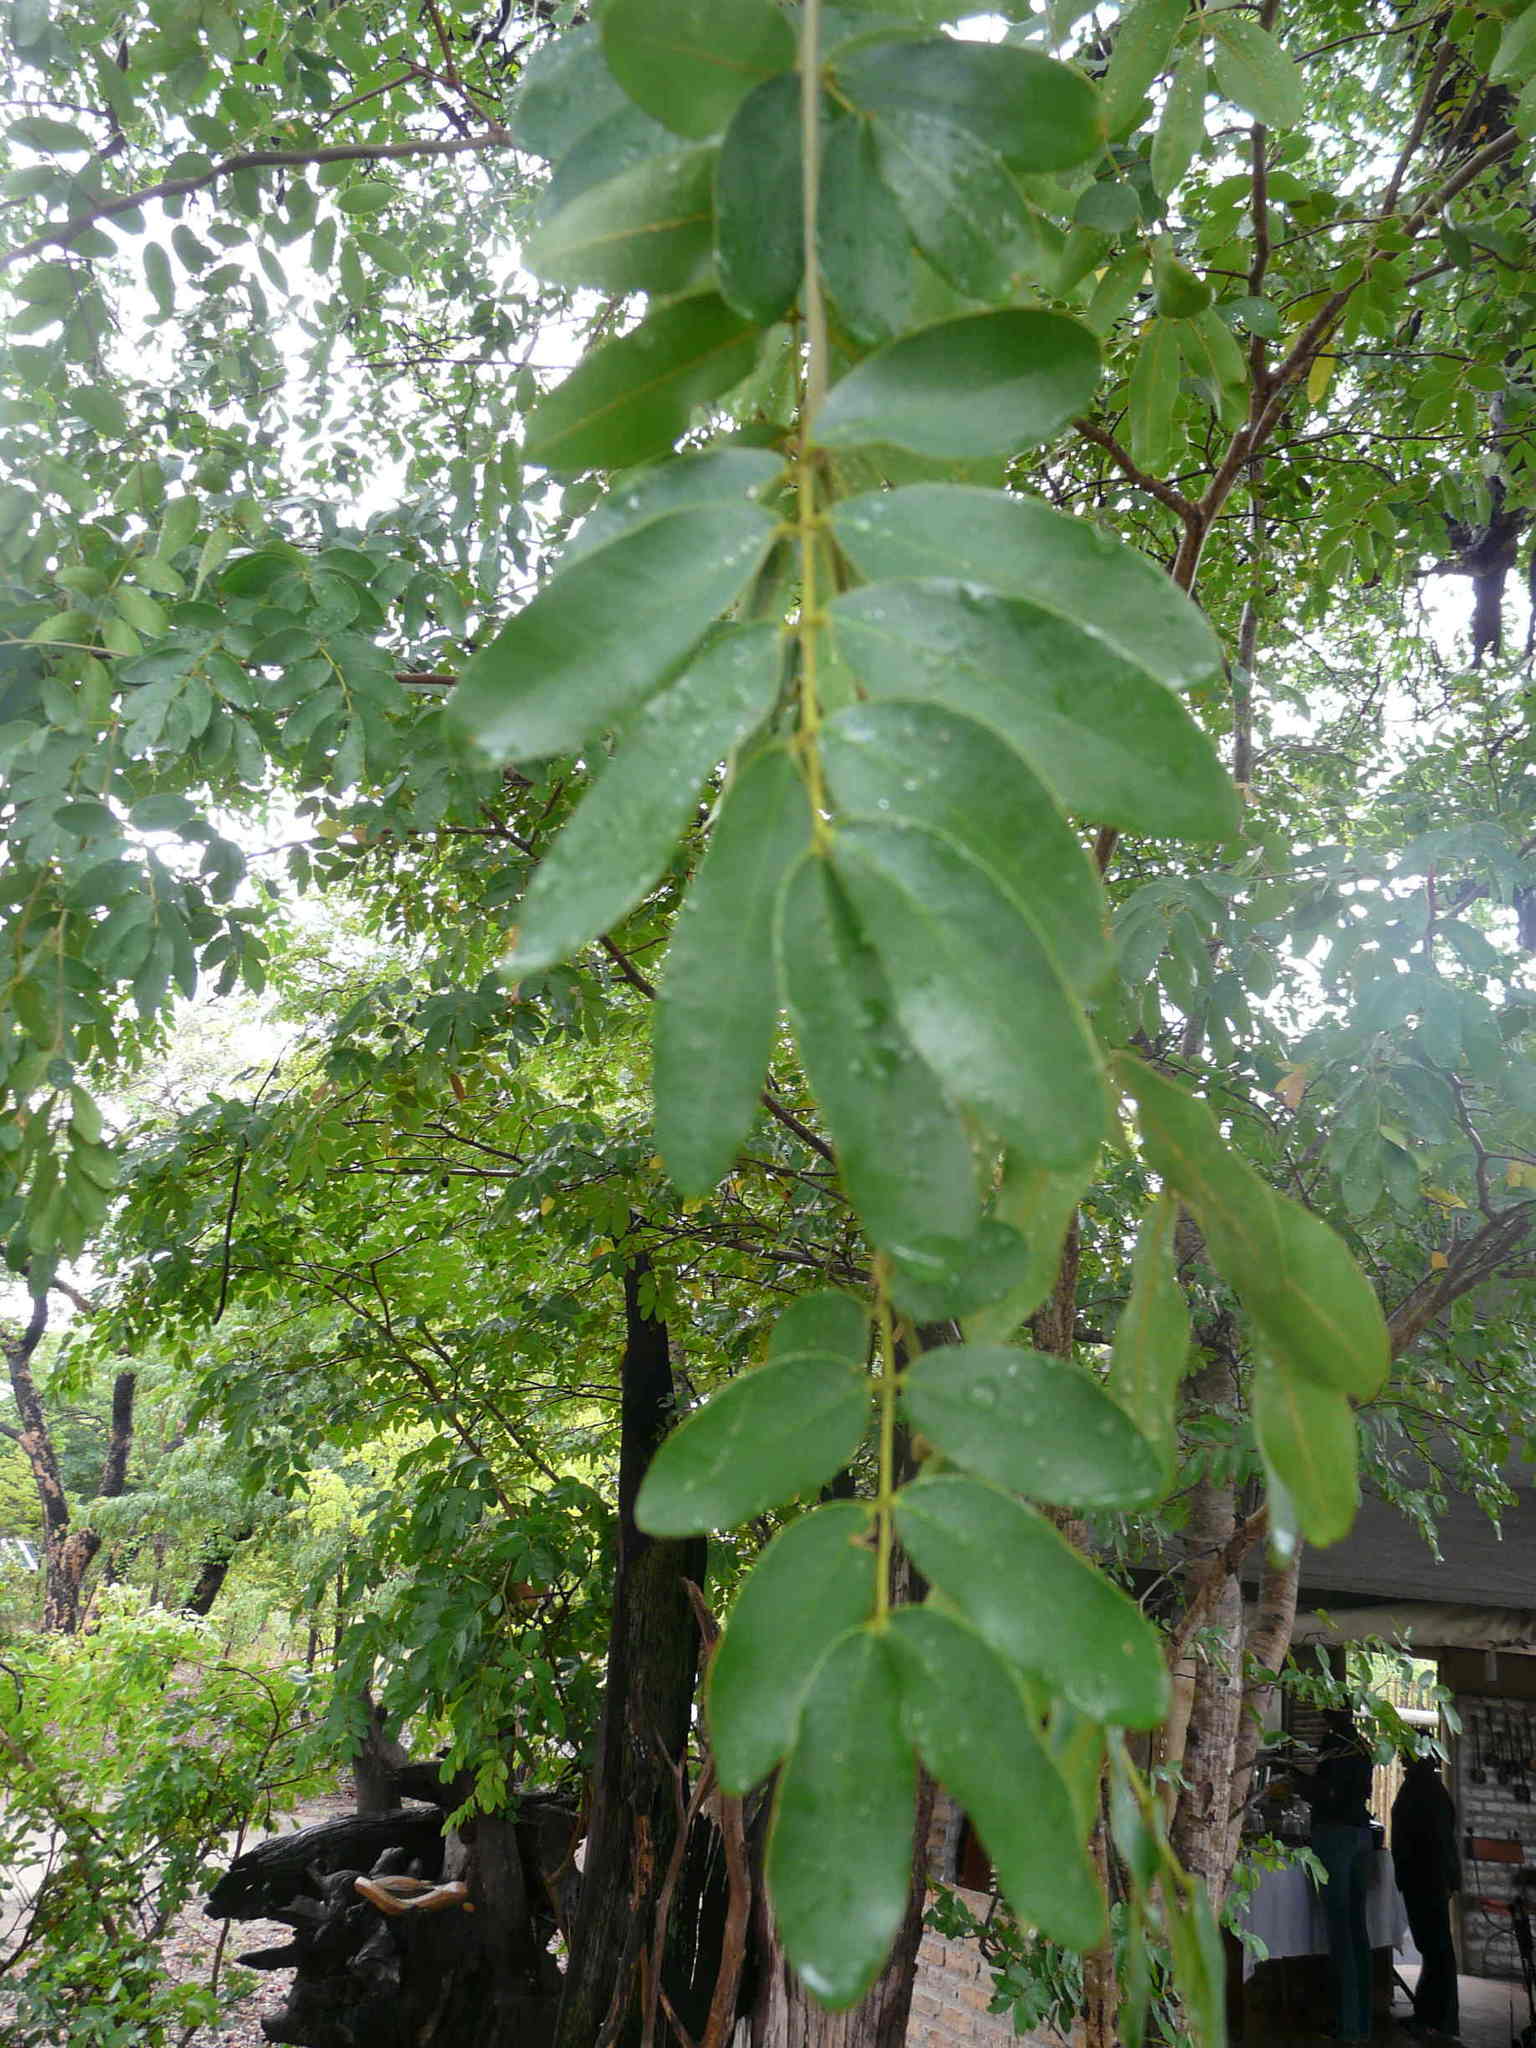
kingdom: Plantae
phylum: Tracheophyta
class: Magnoliopsida
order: Fabales
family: Fabaceae
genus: Baikiaea
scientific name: Baikiaea plurijuga
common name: Rhodesian-teak
